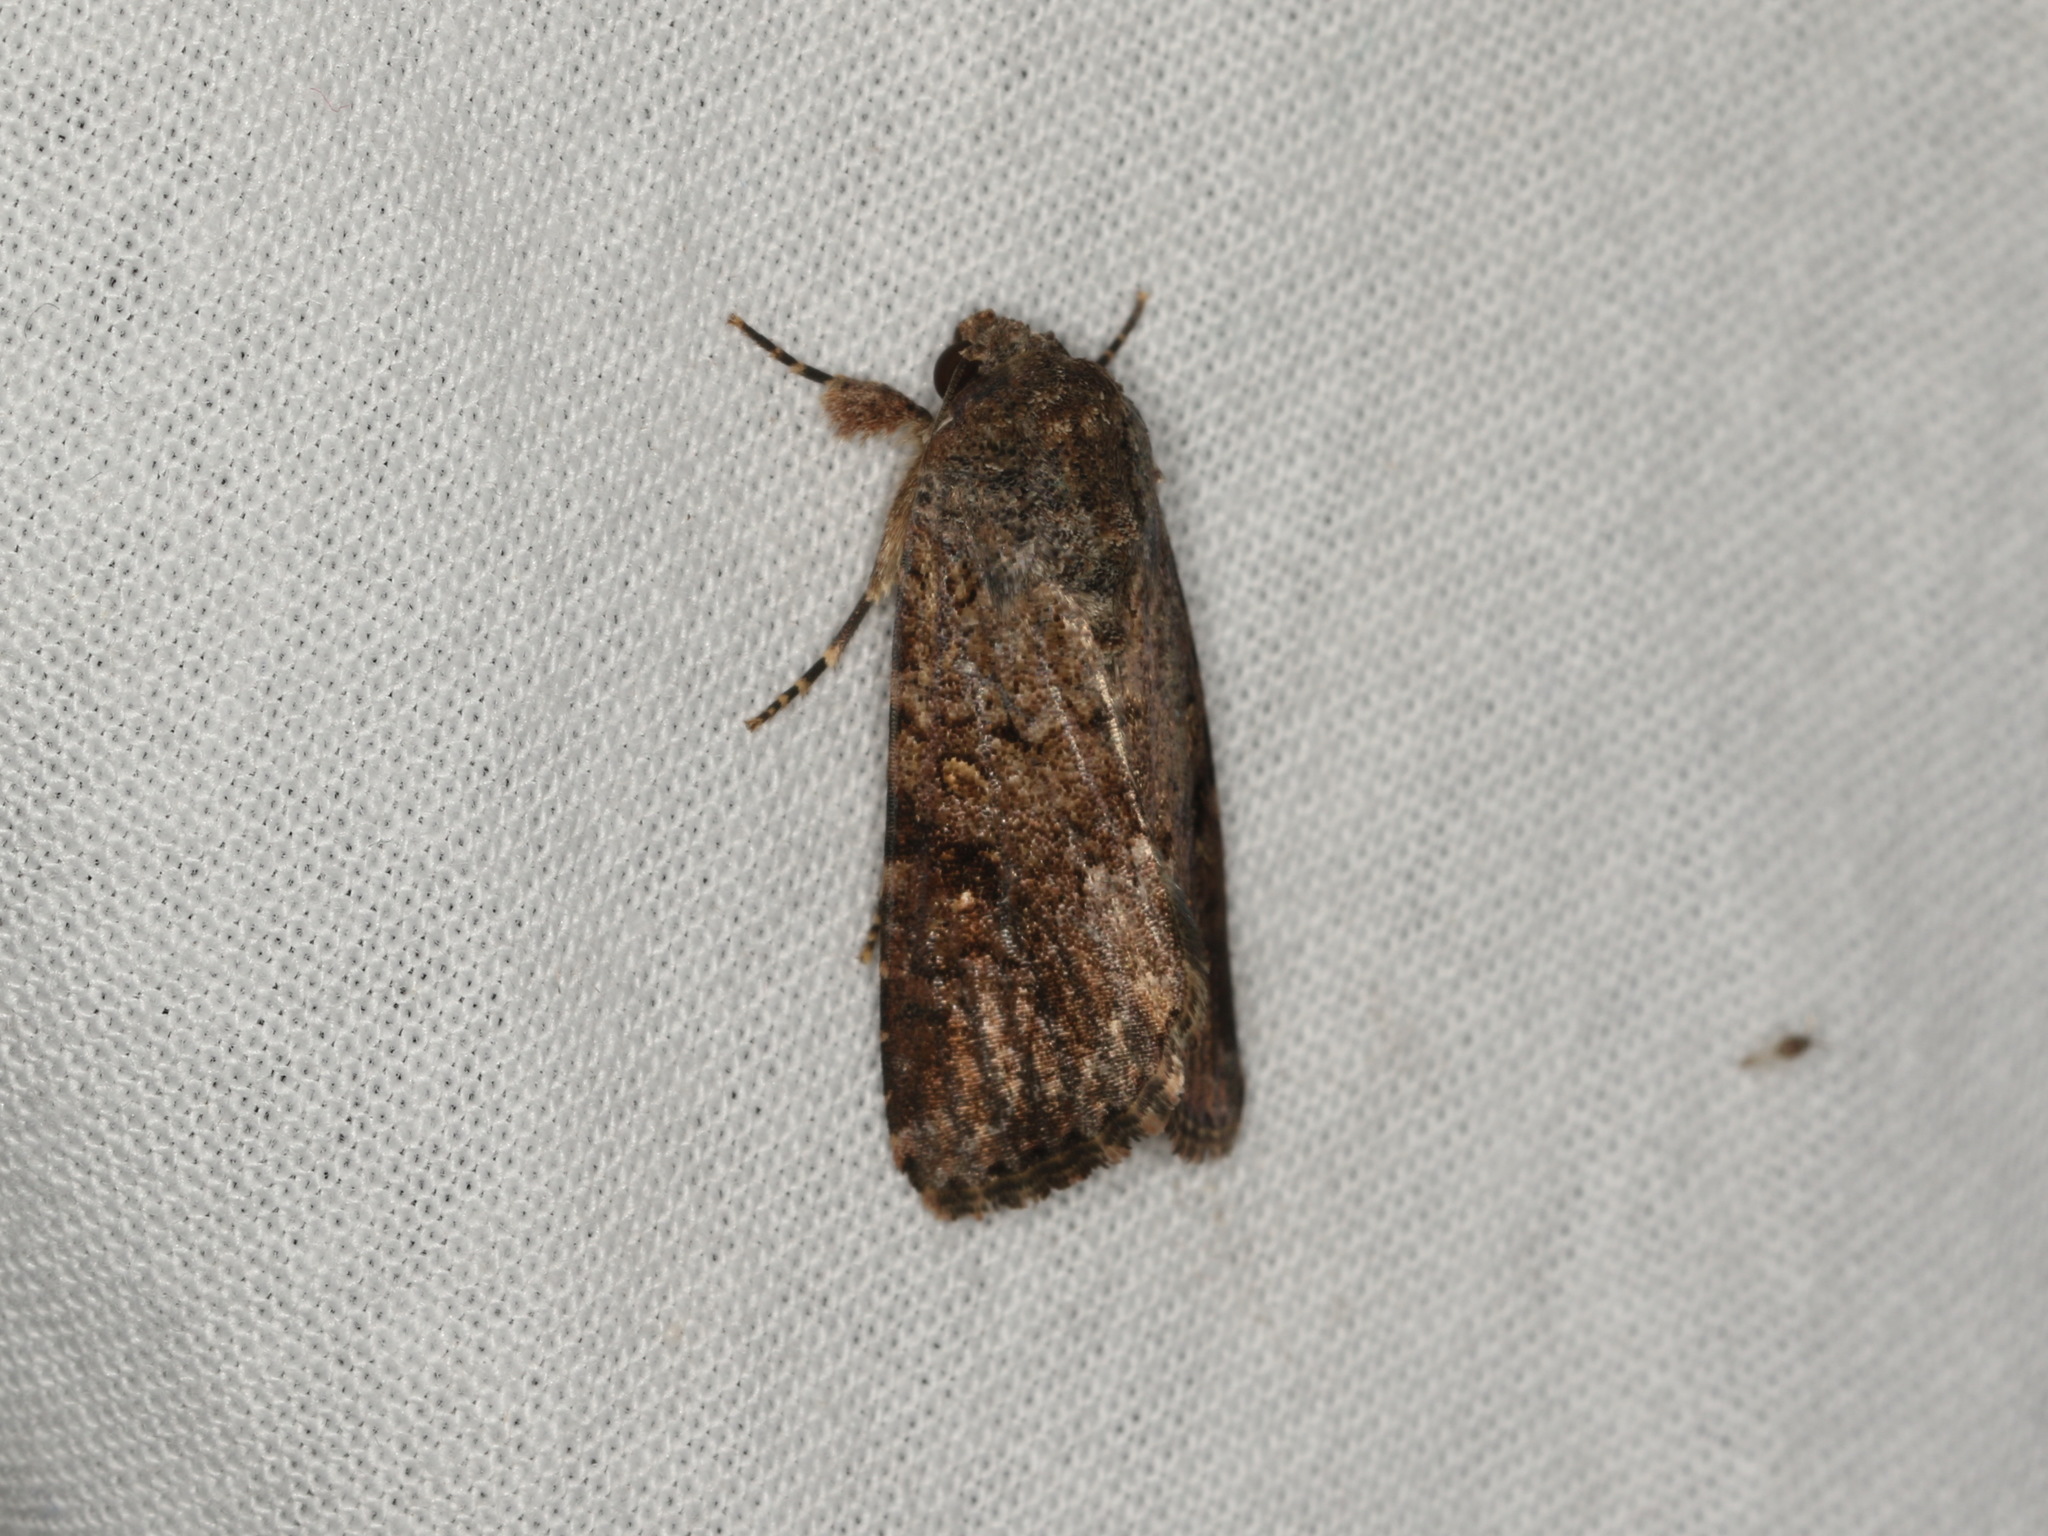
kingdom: Animalia
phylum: Arthropoda
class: Insecta
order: Lepidoptera
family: Noctuidae
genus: Spodoptera
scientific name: Spodoptera mauritia
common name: Lawn armyworm
